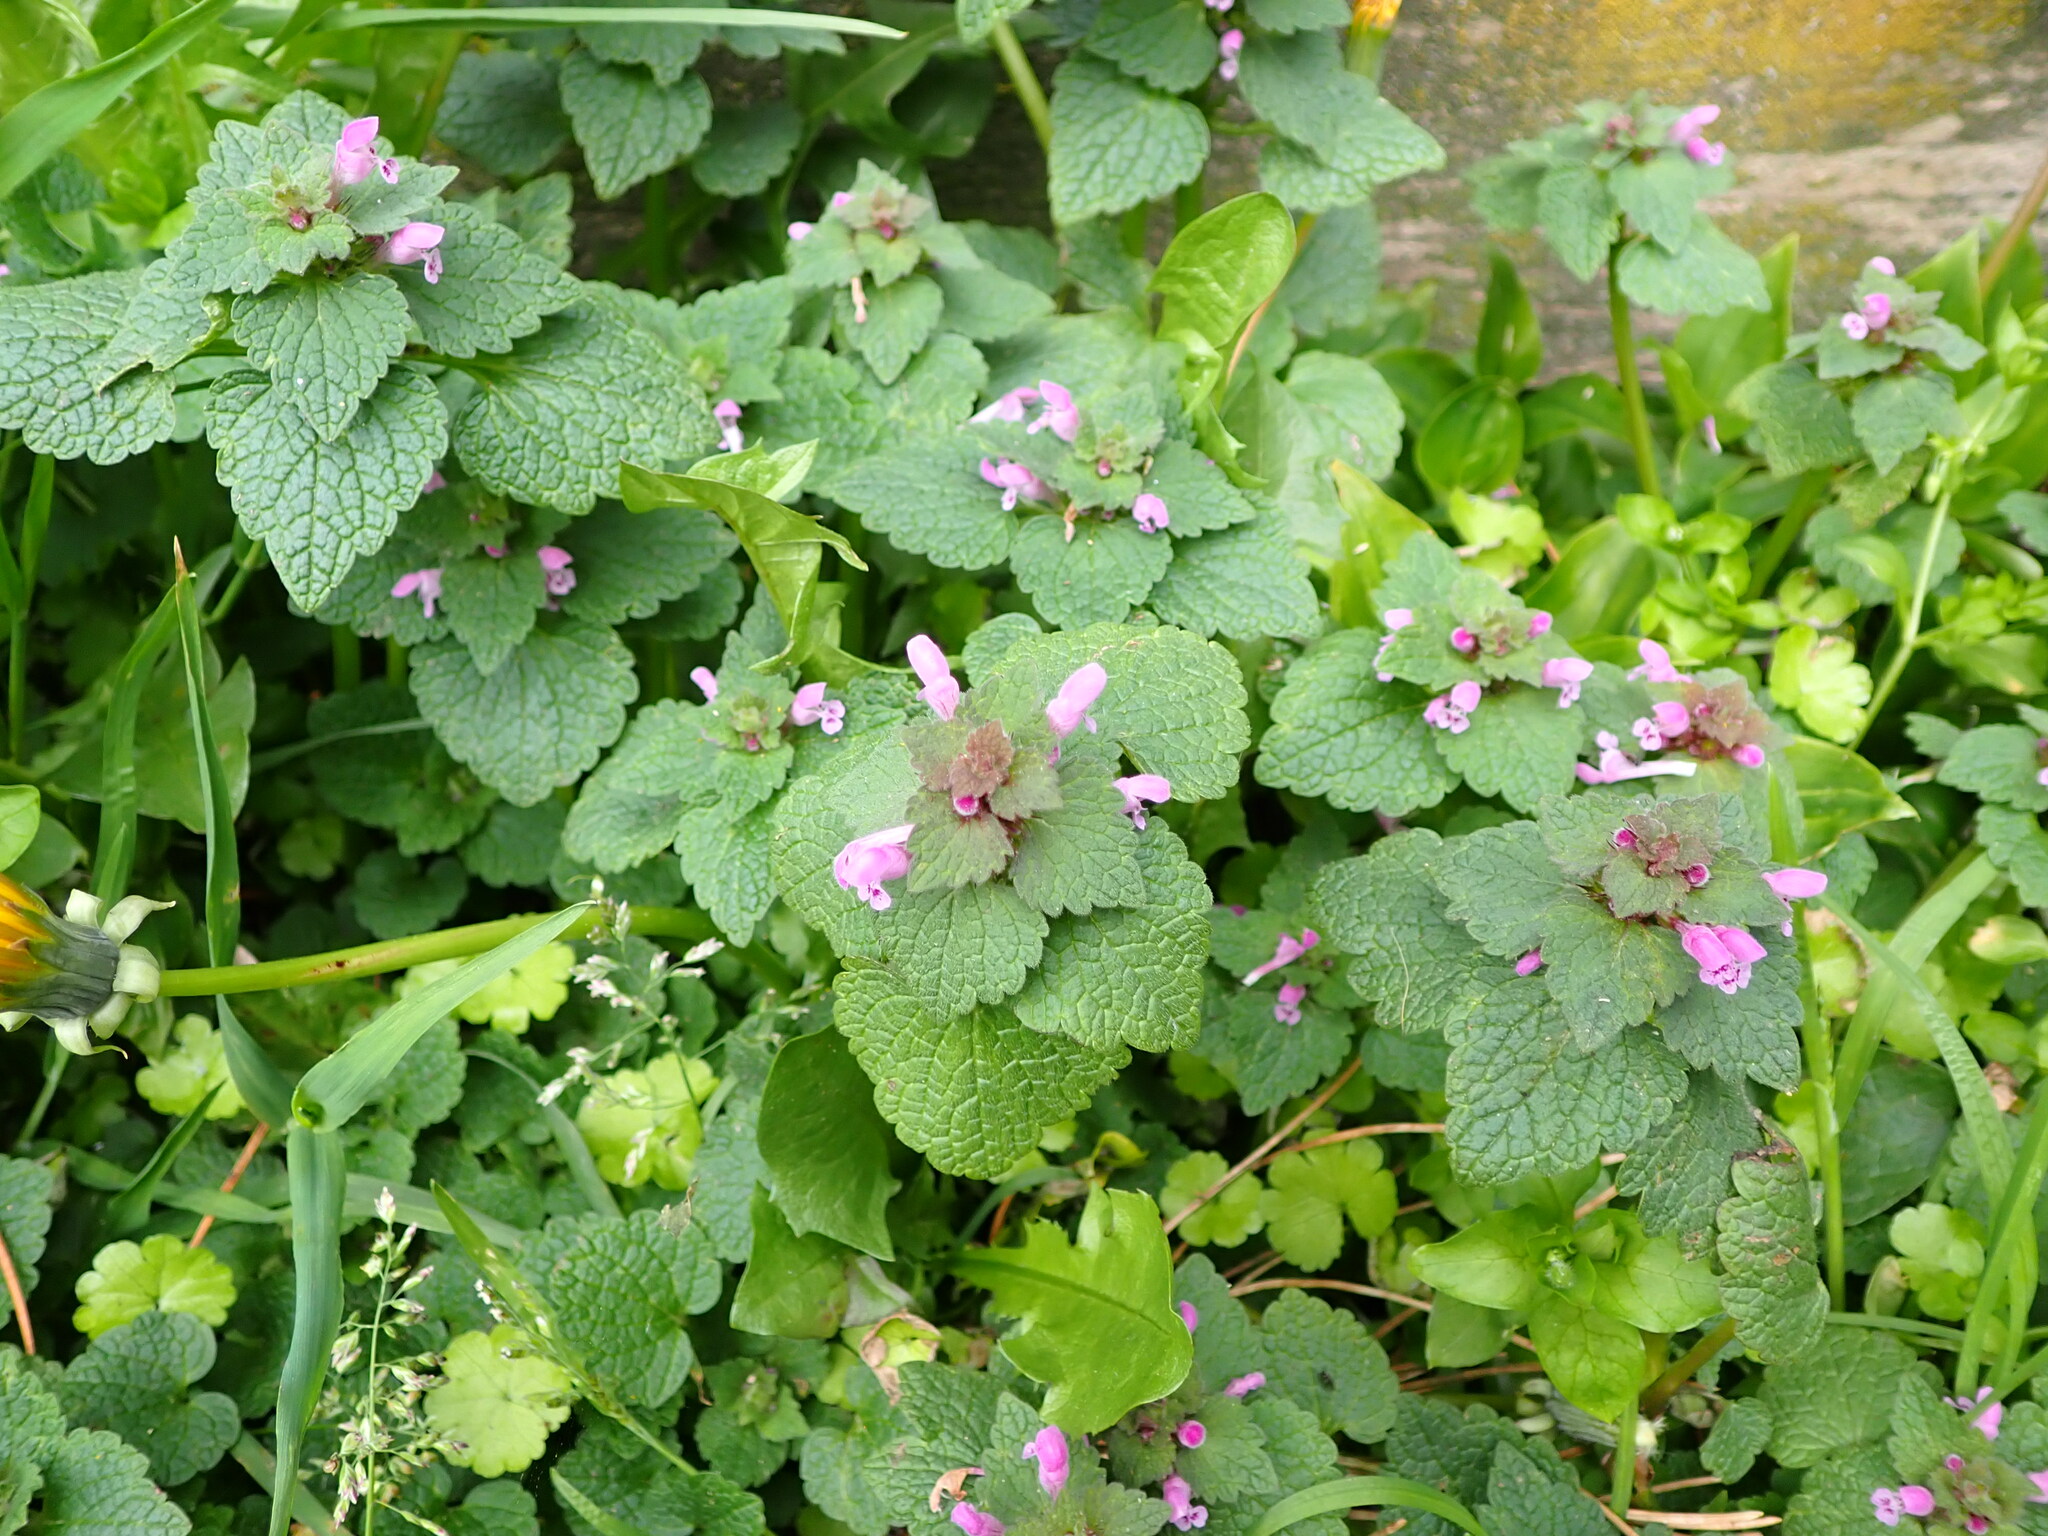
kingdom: Plantae
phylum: Tracheophyta
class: Magnoliopsida
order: Lamiales
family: Lamiaceae
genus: Lamium
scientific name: Lamium purpureum
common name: Red dead-nettle
